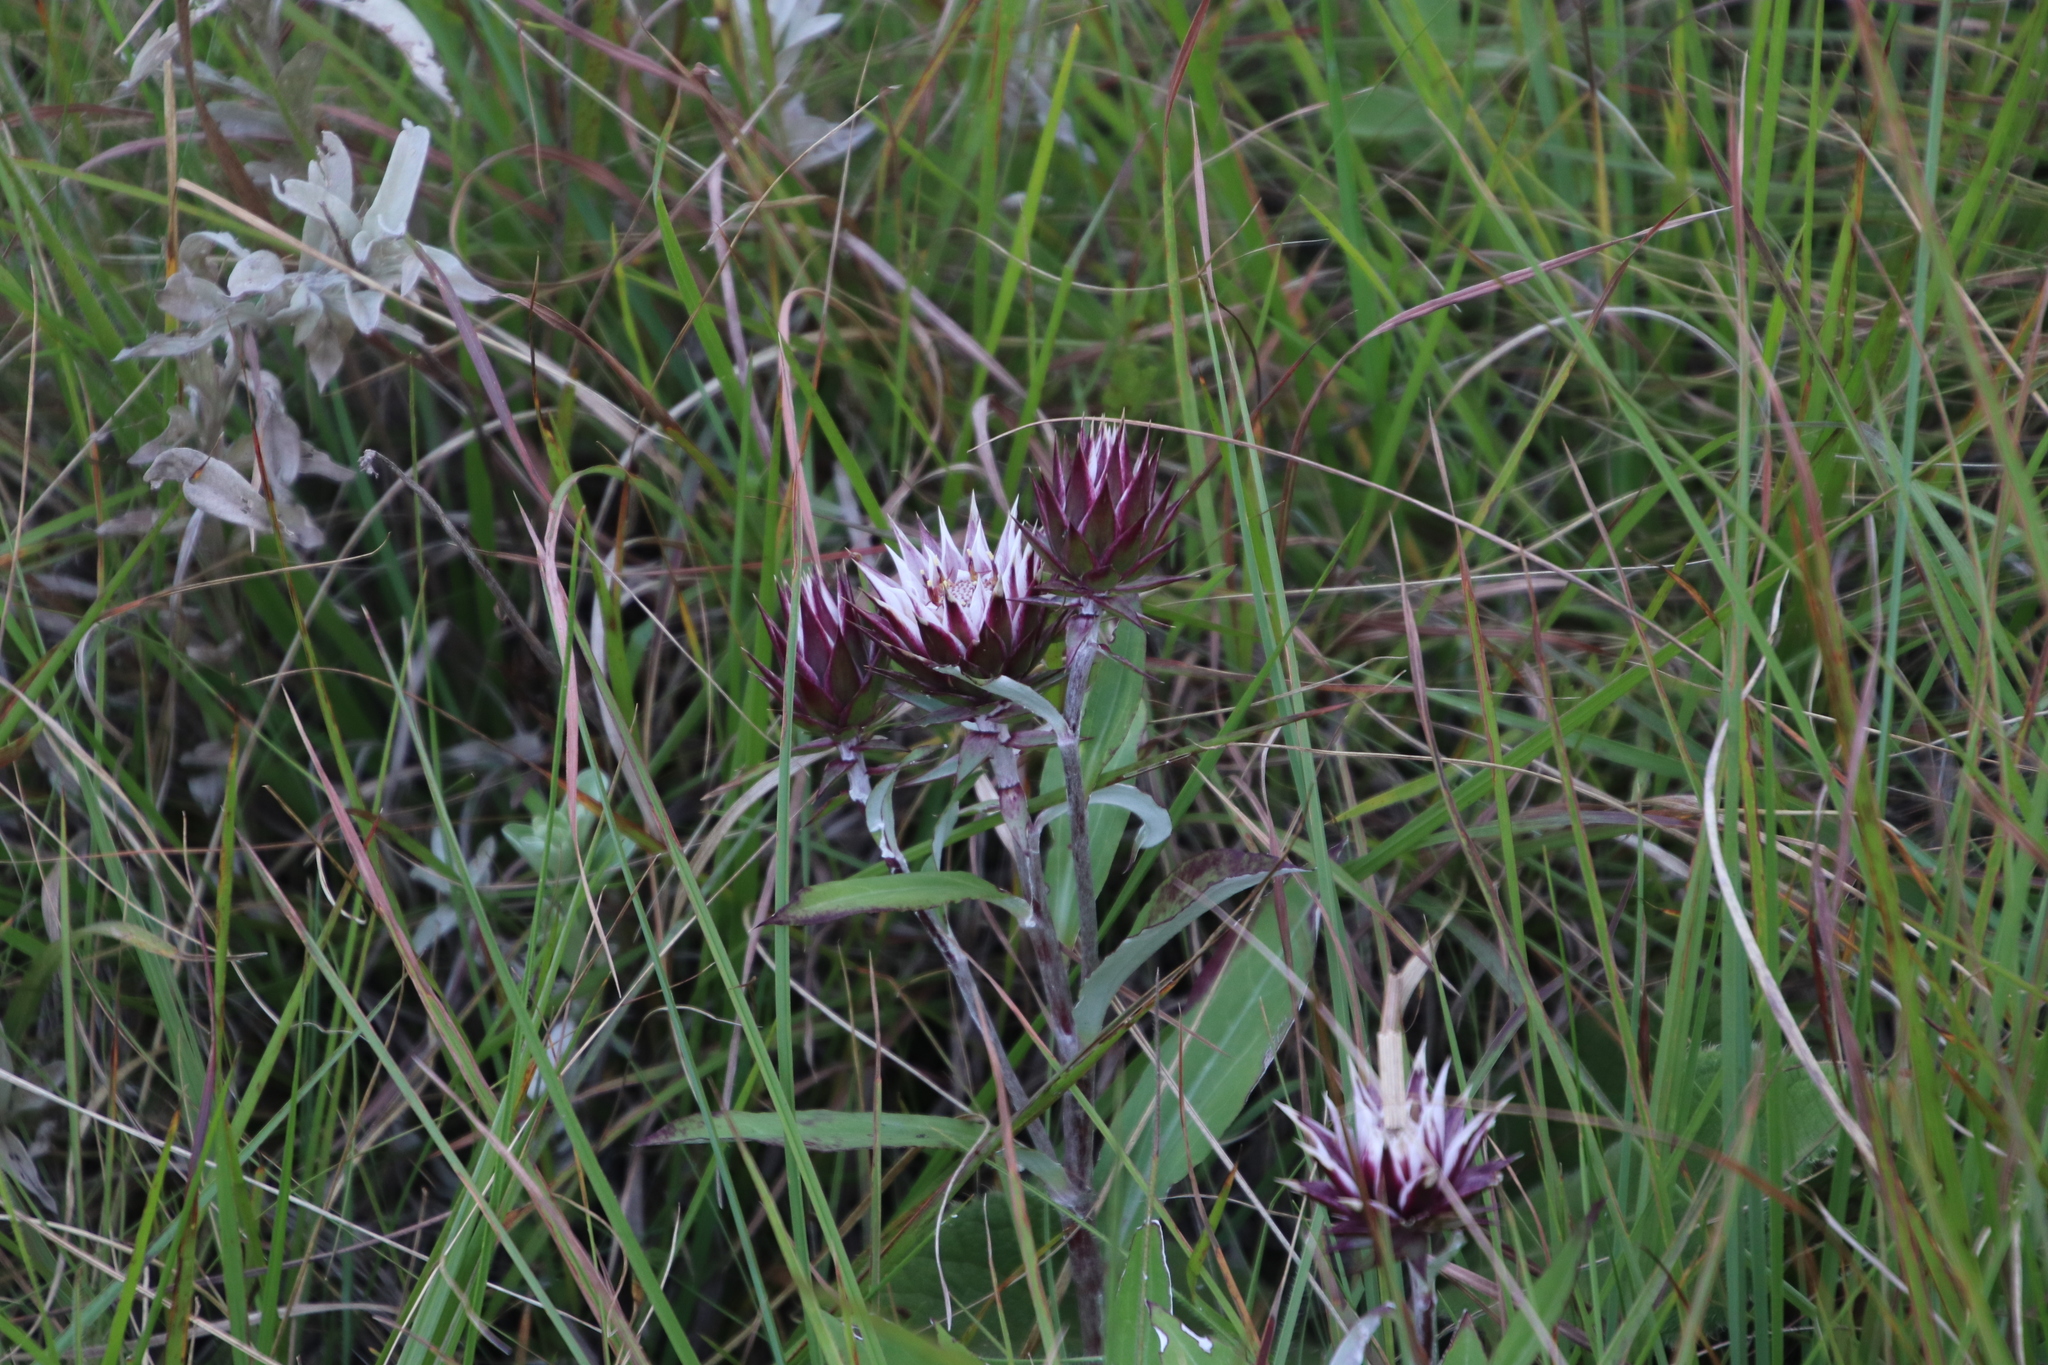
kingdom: Plantae
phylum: Tracheophyta
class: Magnoliopsida
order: Asterales
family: Asteraceae
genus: Macledium
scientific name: Macledium zeyheri
